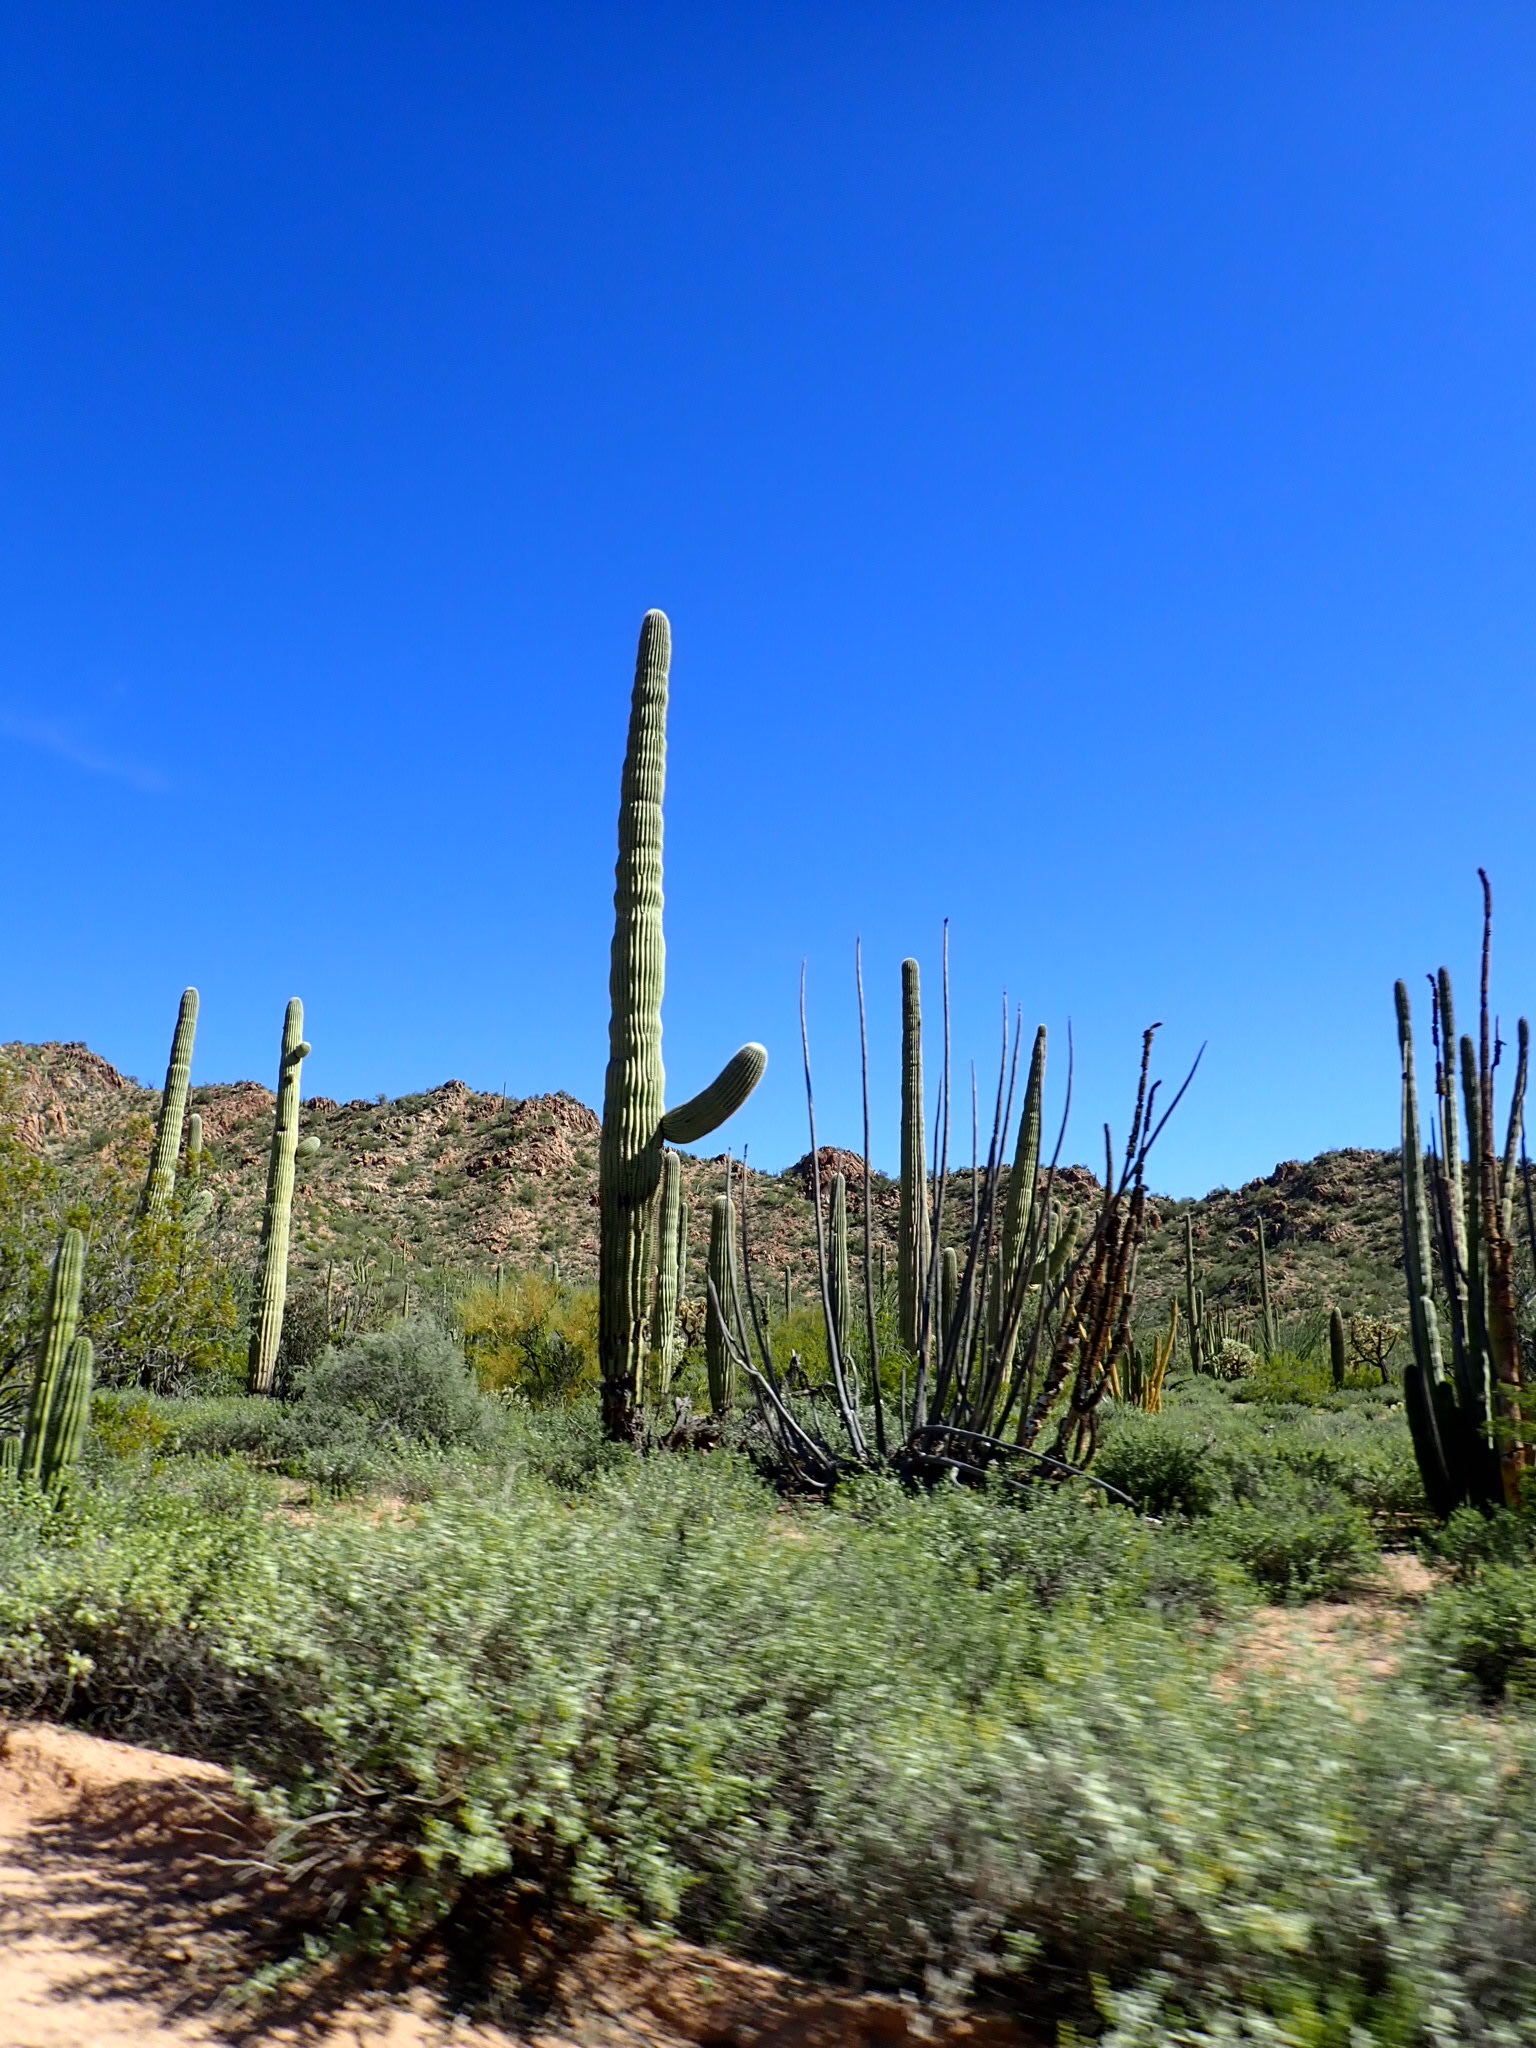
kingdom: Plantae
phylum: Tracheophyta
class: Magnoliopsida
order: Caryophyllales
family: Cactaceae
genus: Carnegiea
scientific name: Carnegiea gigantea
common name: Saguaro
